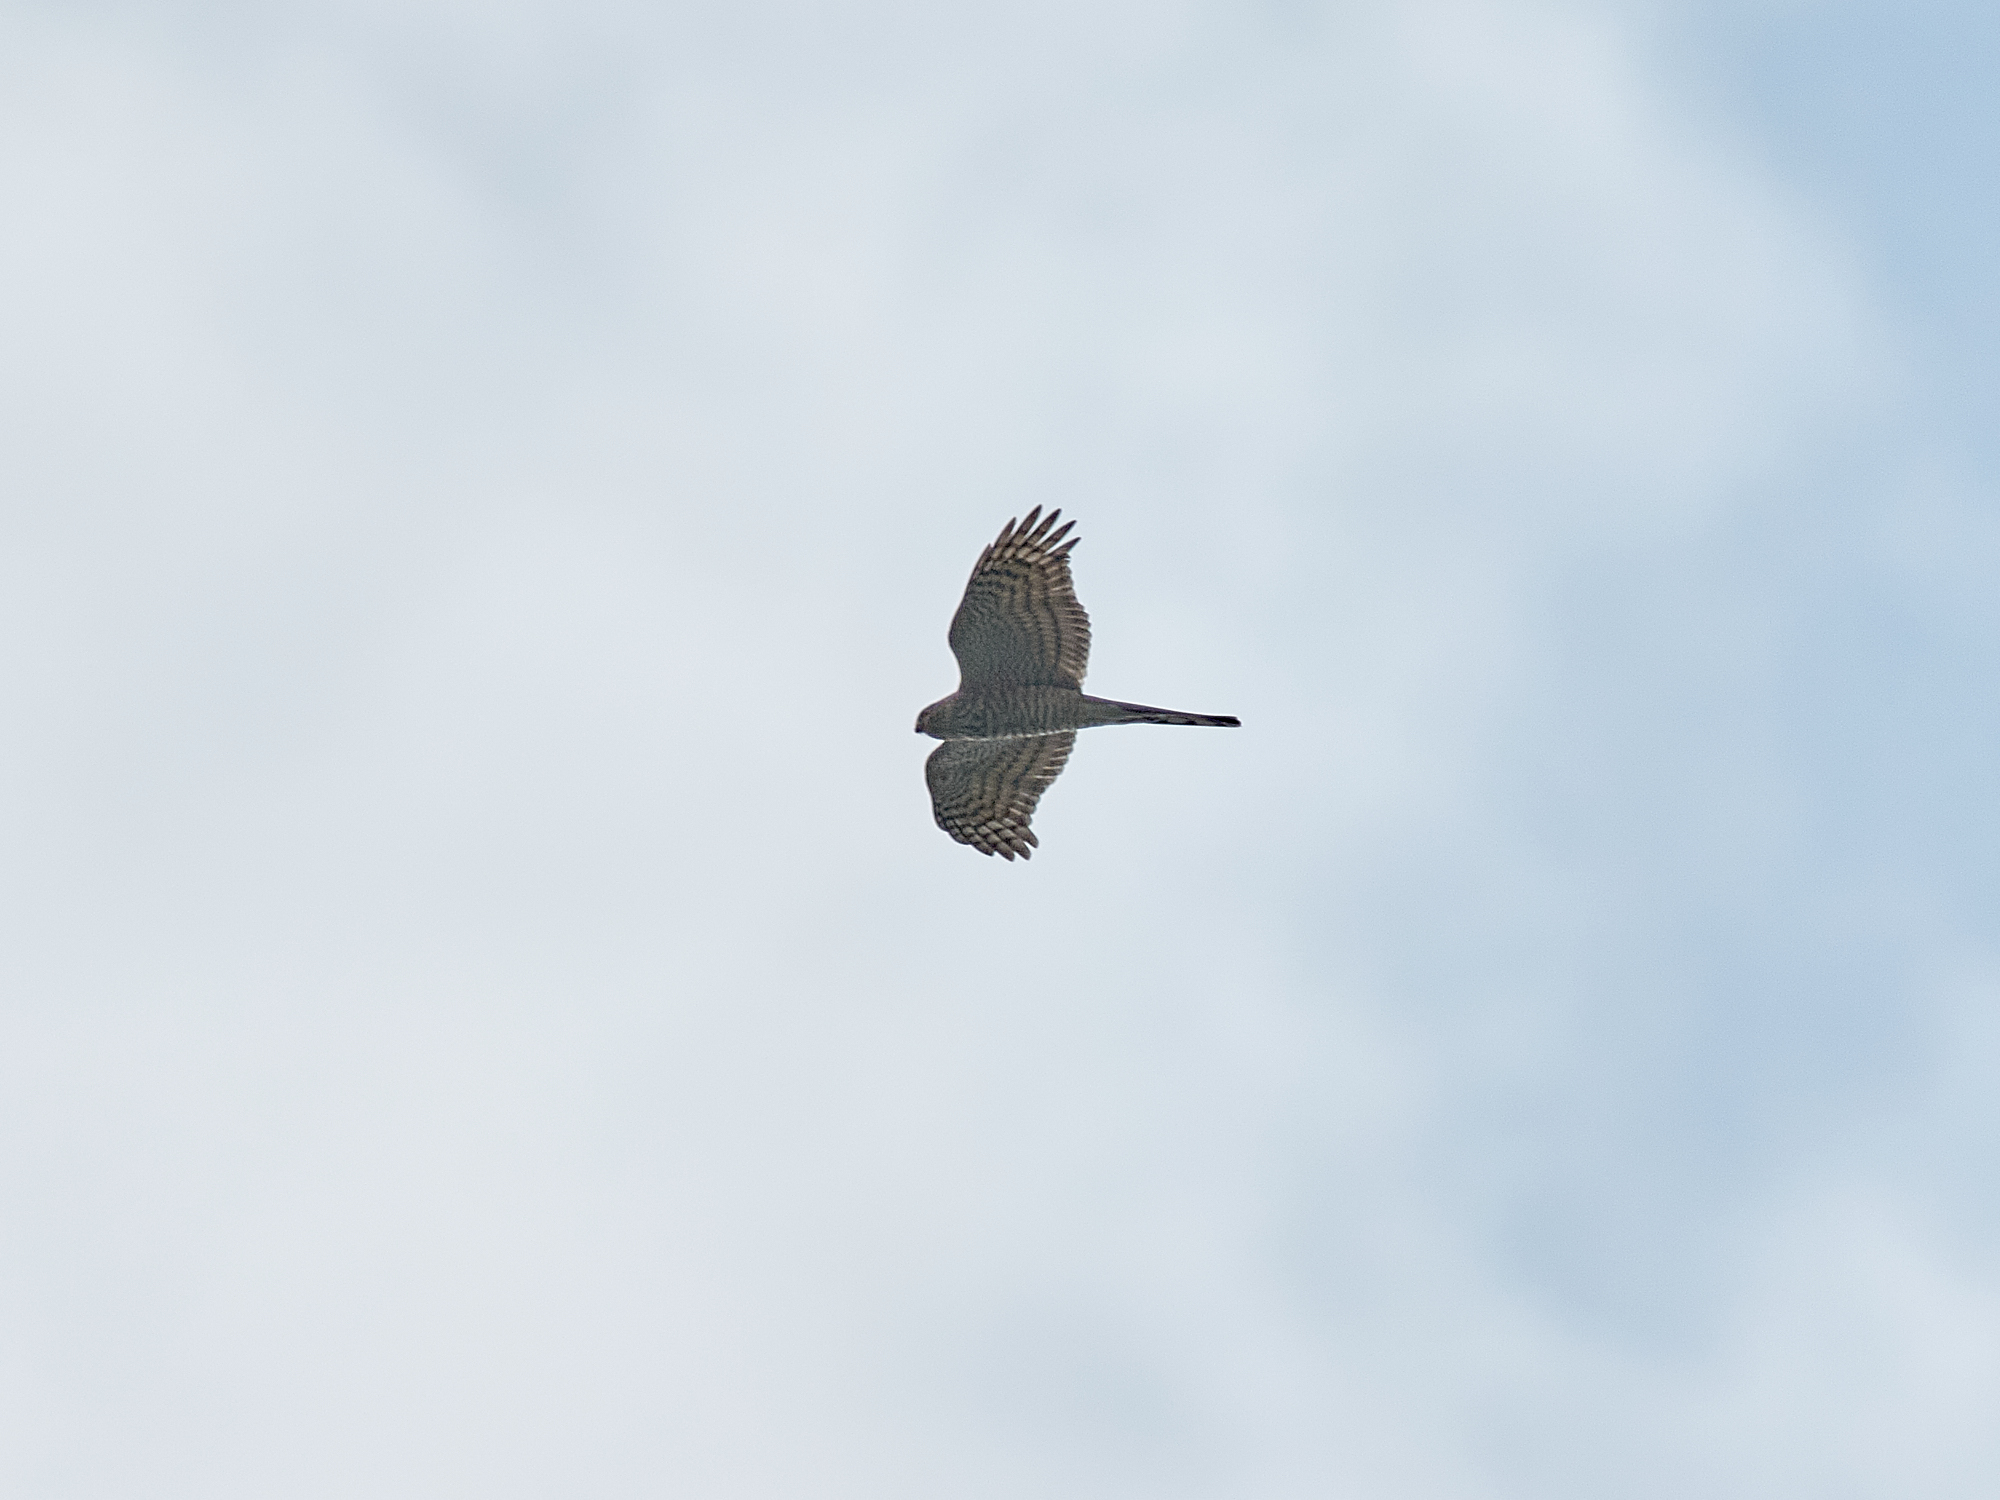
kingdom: Animalia
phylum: Chordata
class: Aves
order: Accipitriformes
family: Accipitridae
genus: Accipiter
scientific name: Accipiter nisus
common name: Eurasian sparrowhawk
